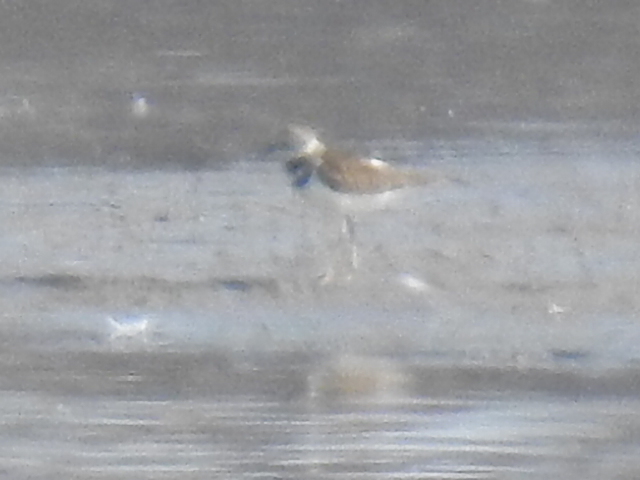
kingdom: Animalia
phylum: Chordata
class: Aves
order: Charadriiformes
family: Charadriidae
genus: Charadrius
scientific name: Charadrius vociferus
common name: Killdeer
